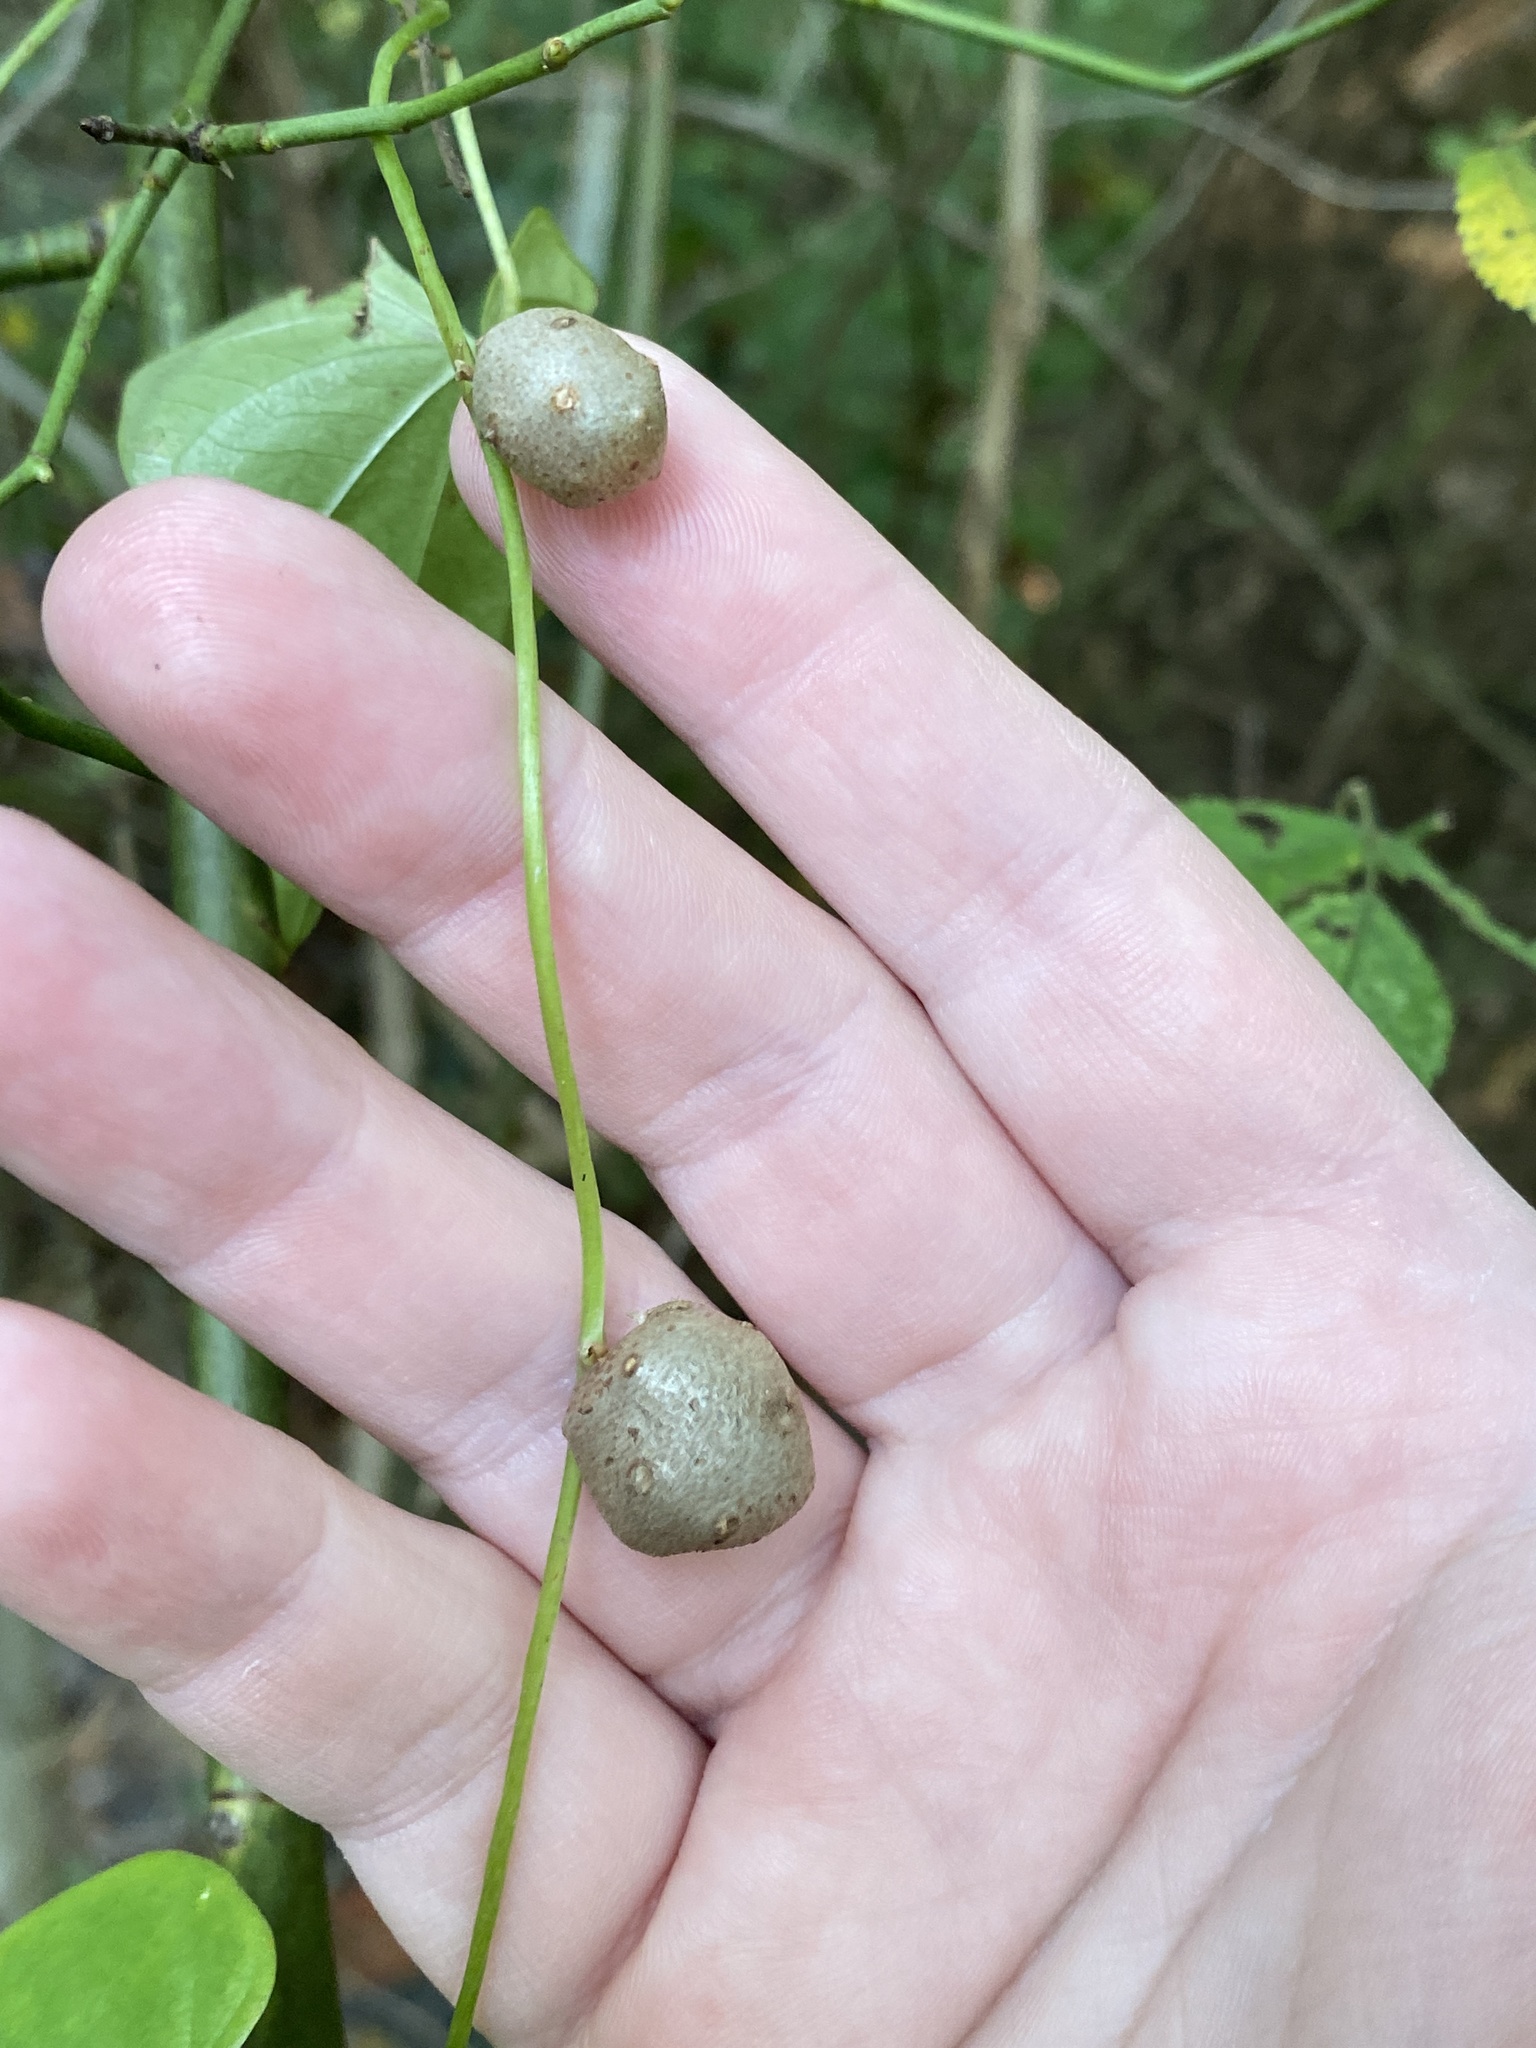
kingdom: Plantae
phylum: Tracheophyta
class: Liliopsida
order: Dioscoreales
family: Dioscoreaceae
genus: Dioscorea
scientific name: Dioscorea polystachya
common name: Chinese yam
